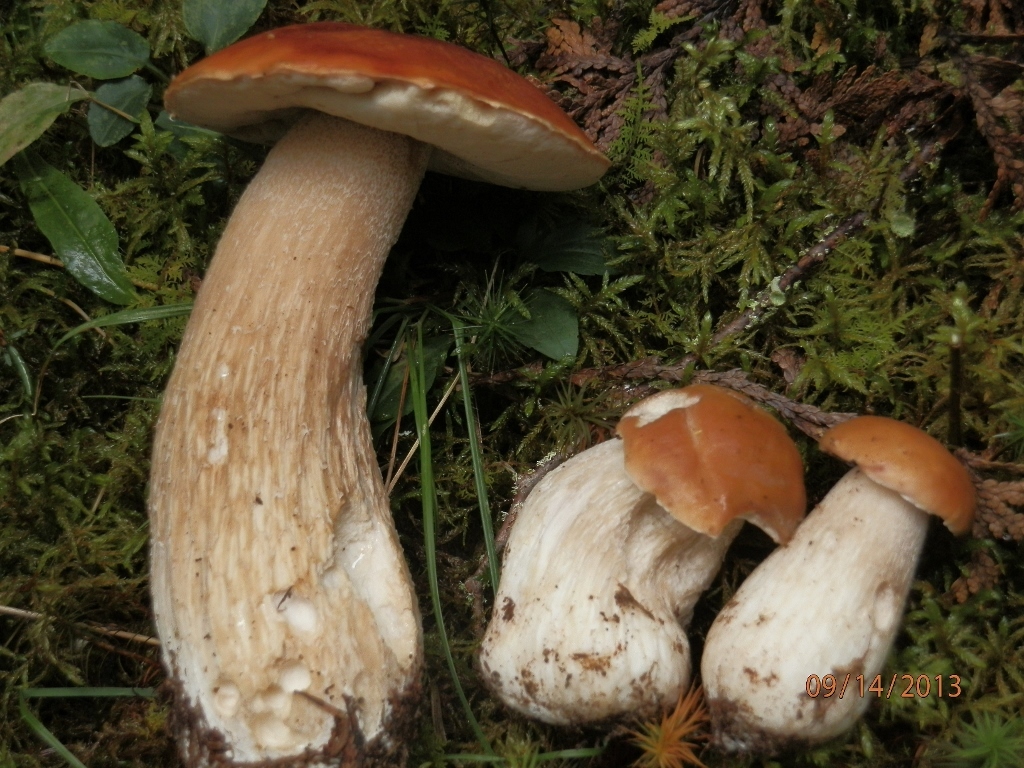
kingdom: Fungi
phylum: Basidiomycota
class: Agaricomycetes
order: Boletales
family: Boletaceae
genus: Boletus
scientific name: Boletus chippewaensis
